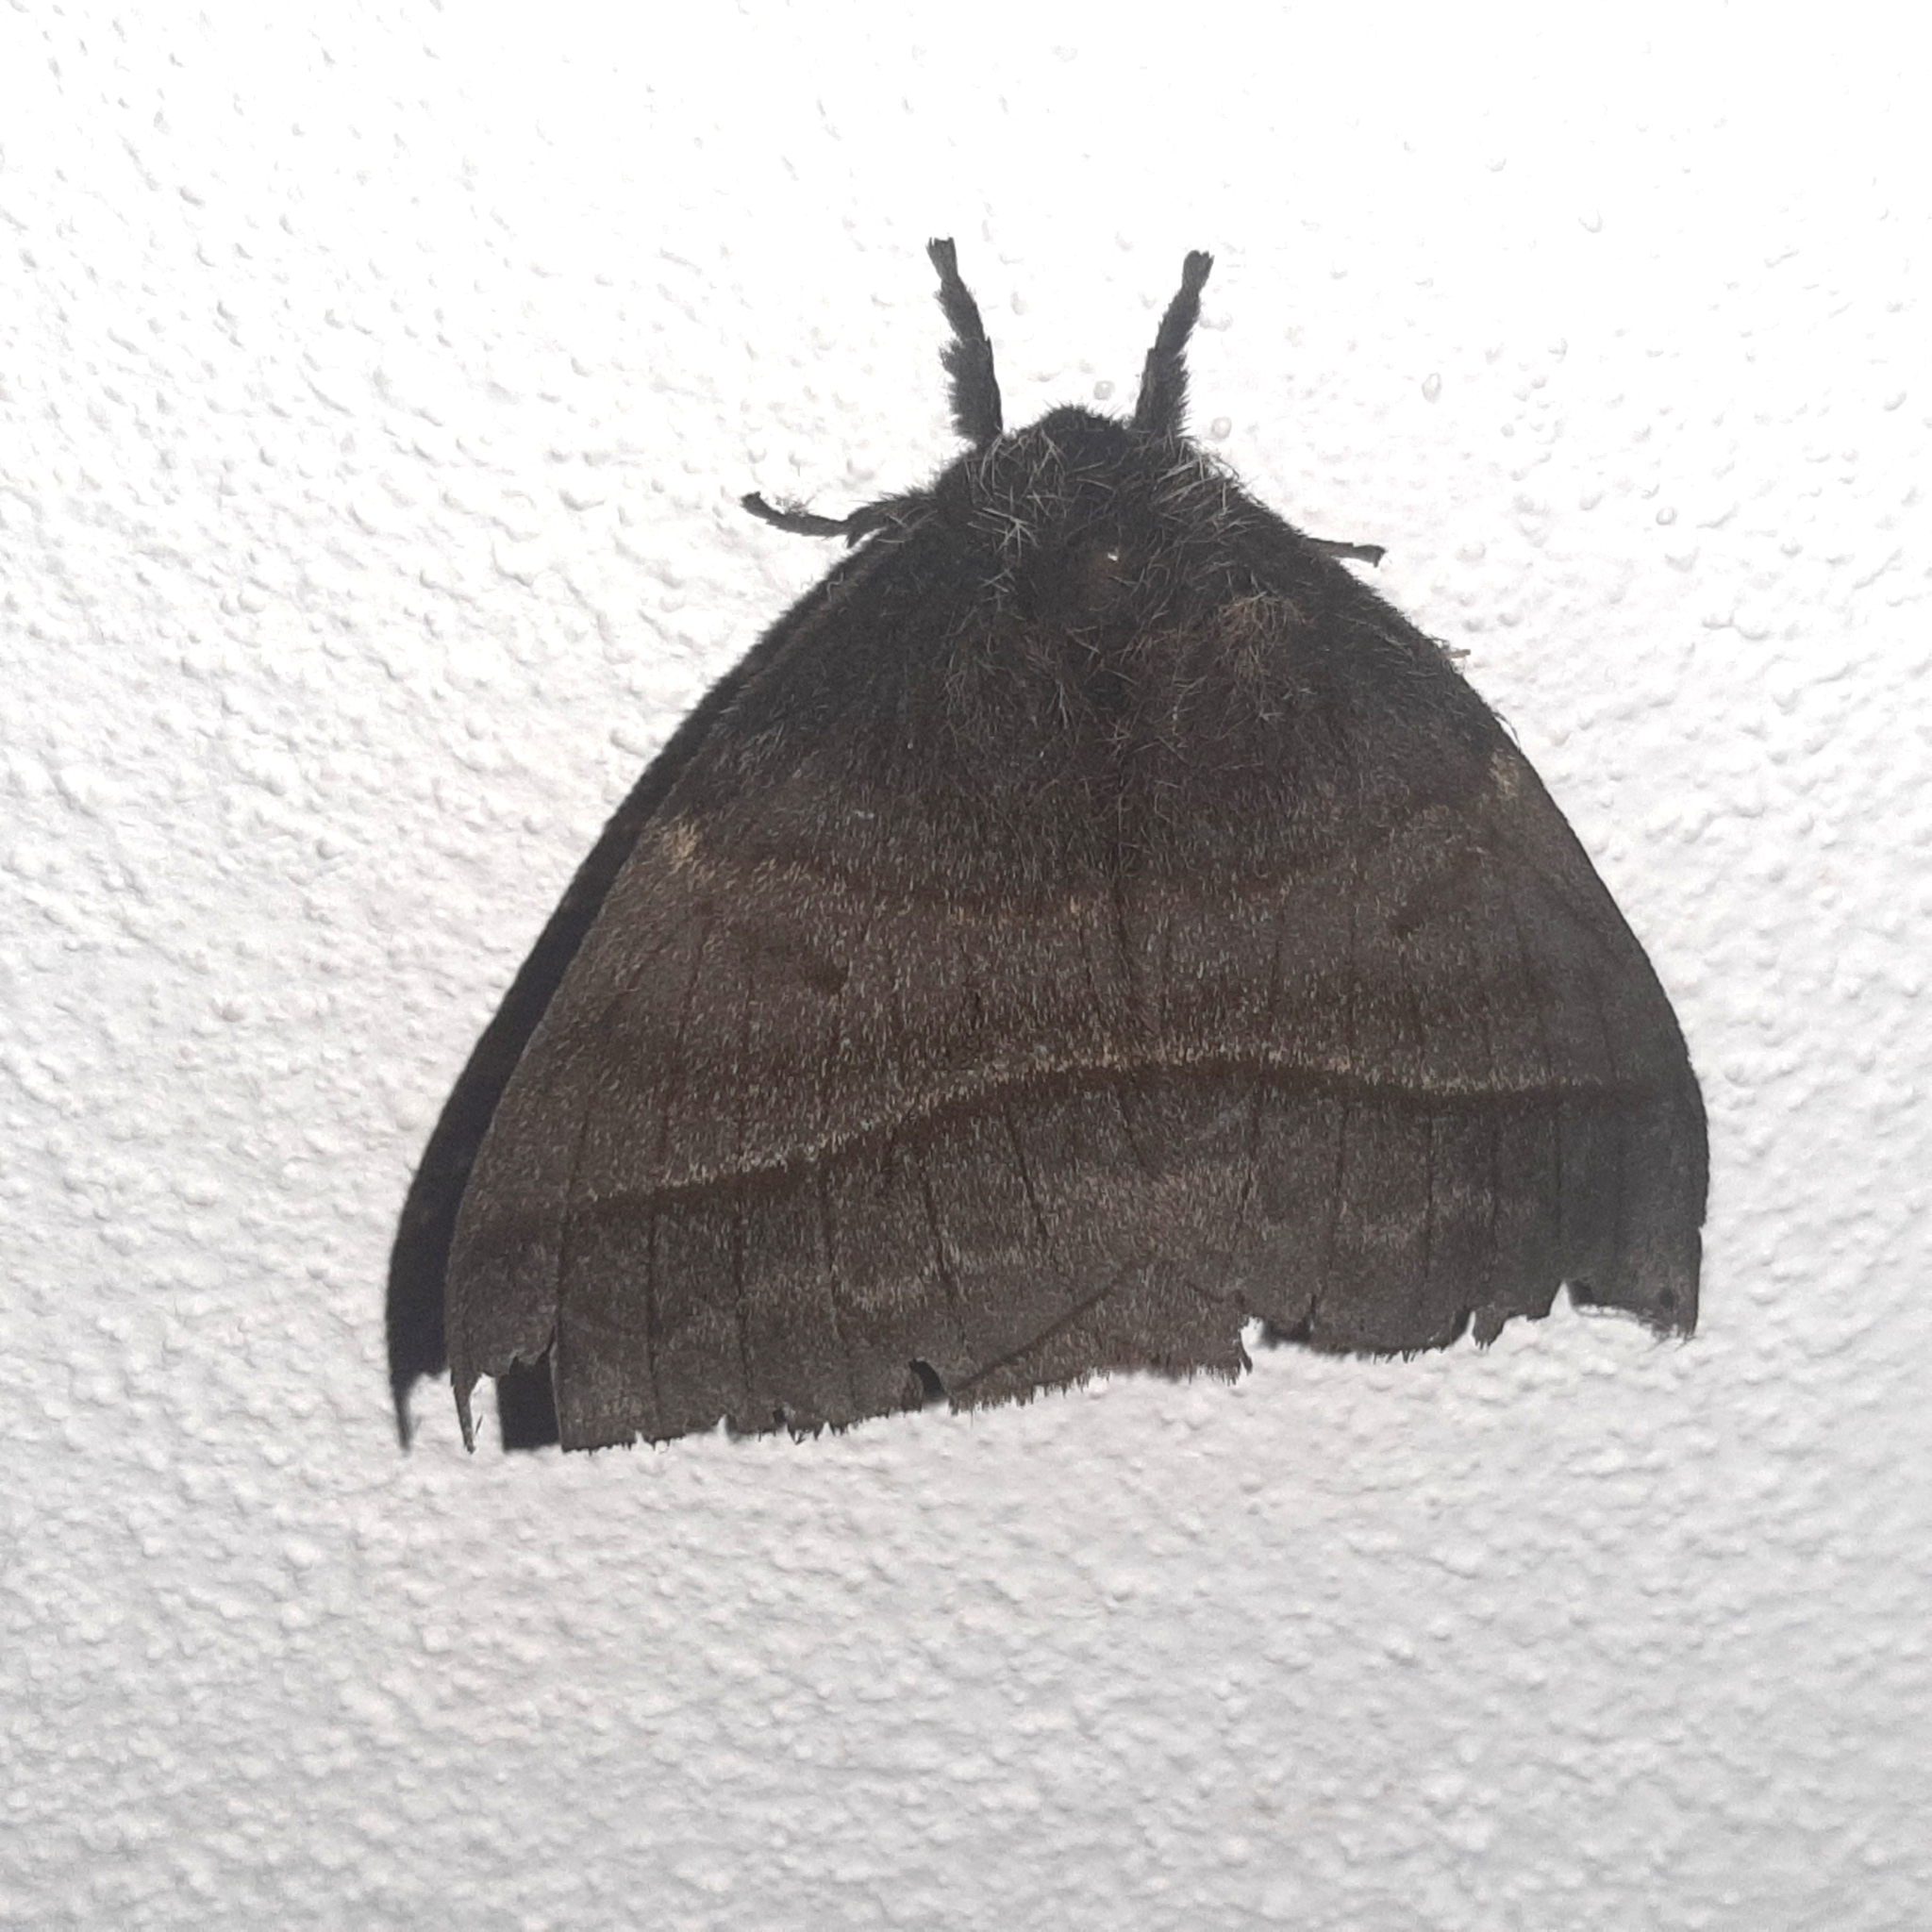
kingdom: Animalia
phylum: Arthropoda
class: Insecta
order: Lepidoptera
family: Saturniidae
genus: Automeris
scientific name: Automeris pallidior
